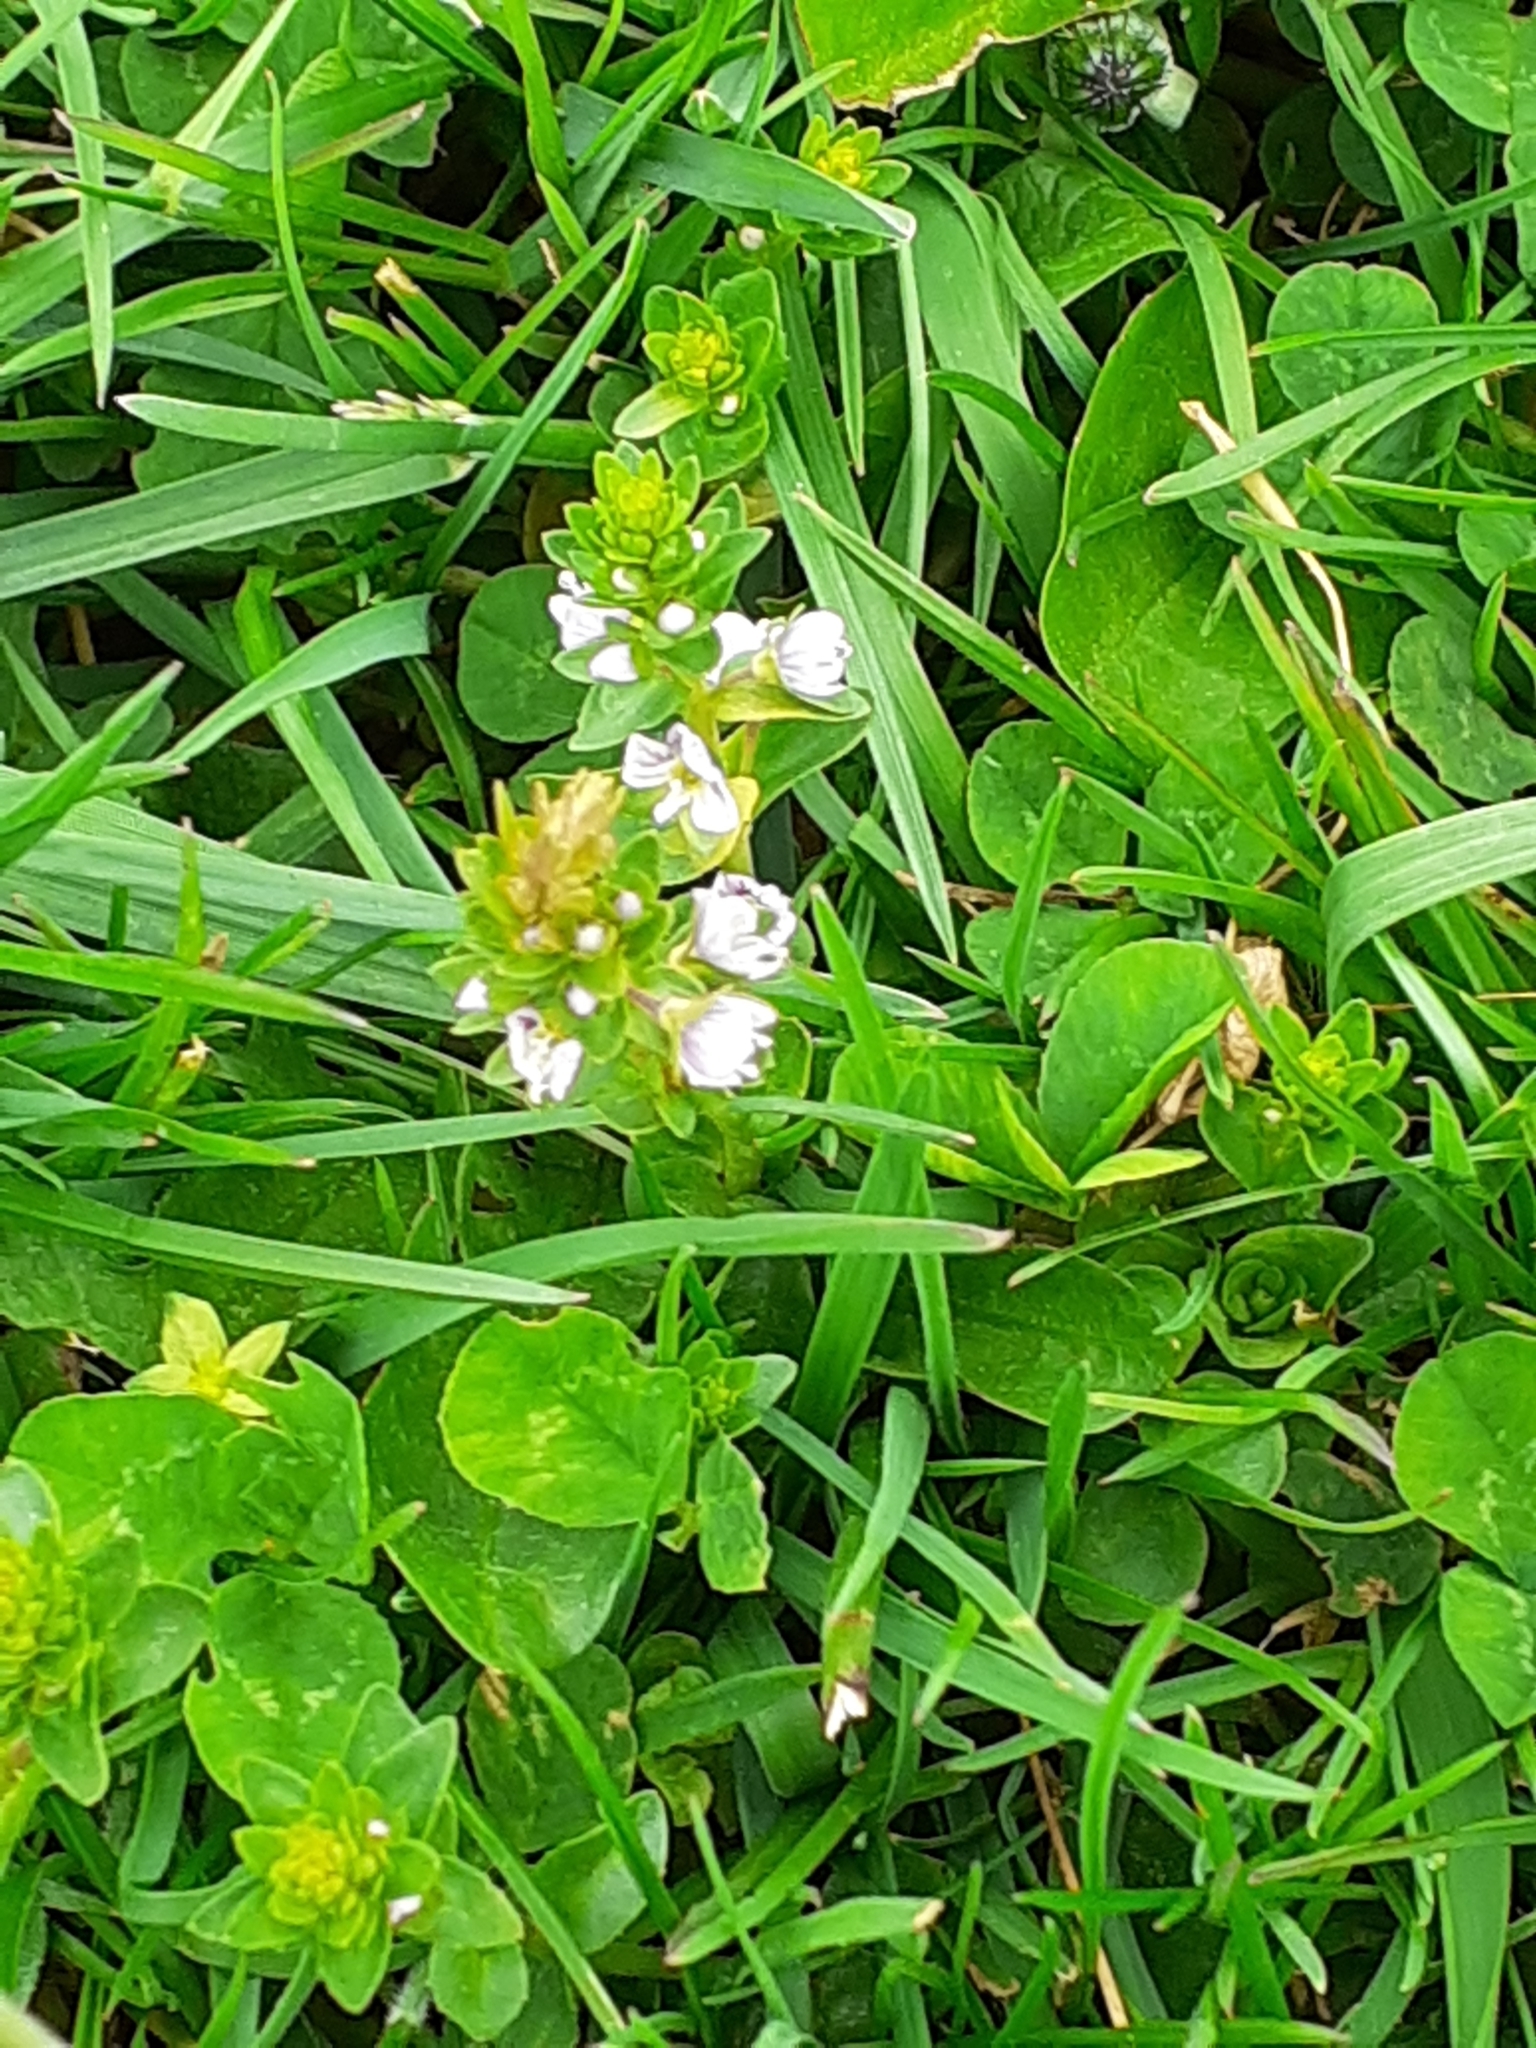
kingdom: Plantae
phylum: Tracheophyta
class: Magnoliopsida
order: Lamiales
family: Plantaginaceae
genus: Veronica
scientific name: Veronica serpyllifolia
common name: Thyme-leaved speedwell
